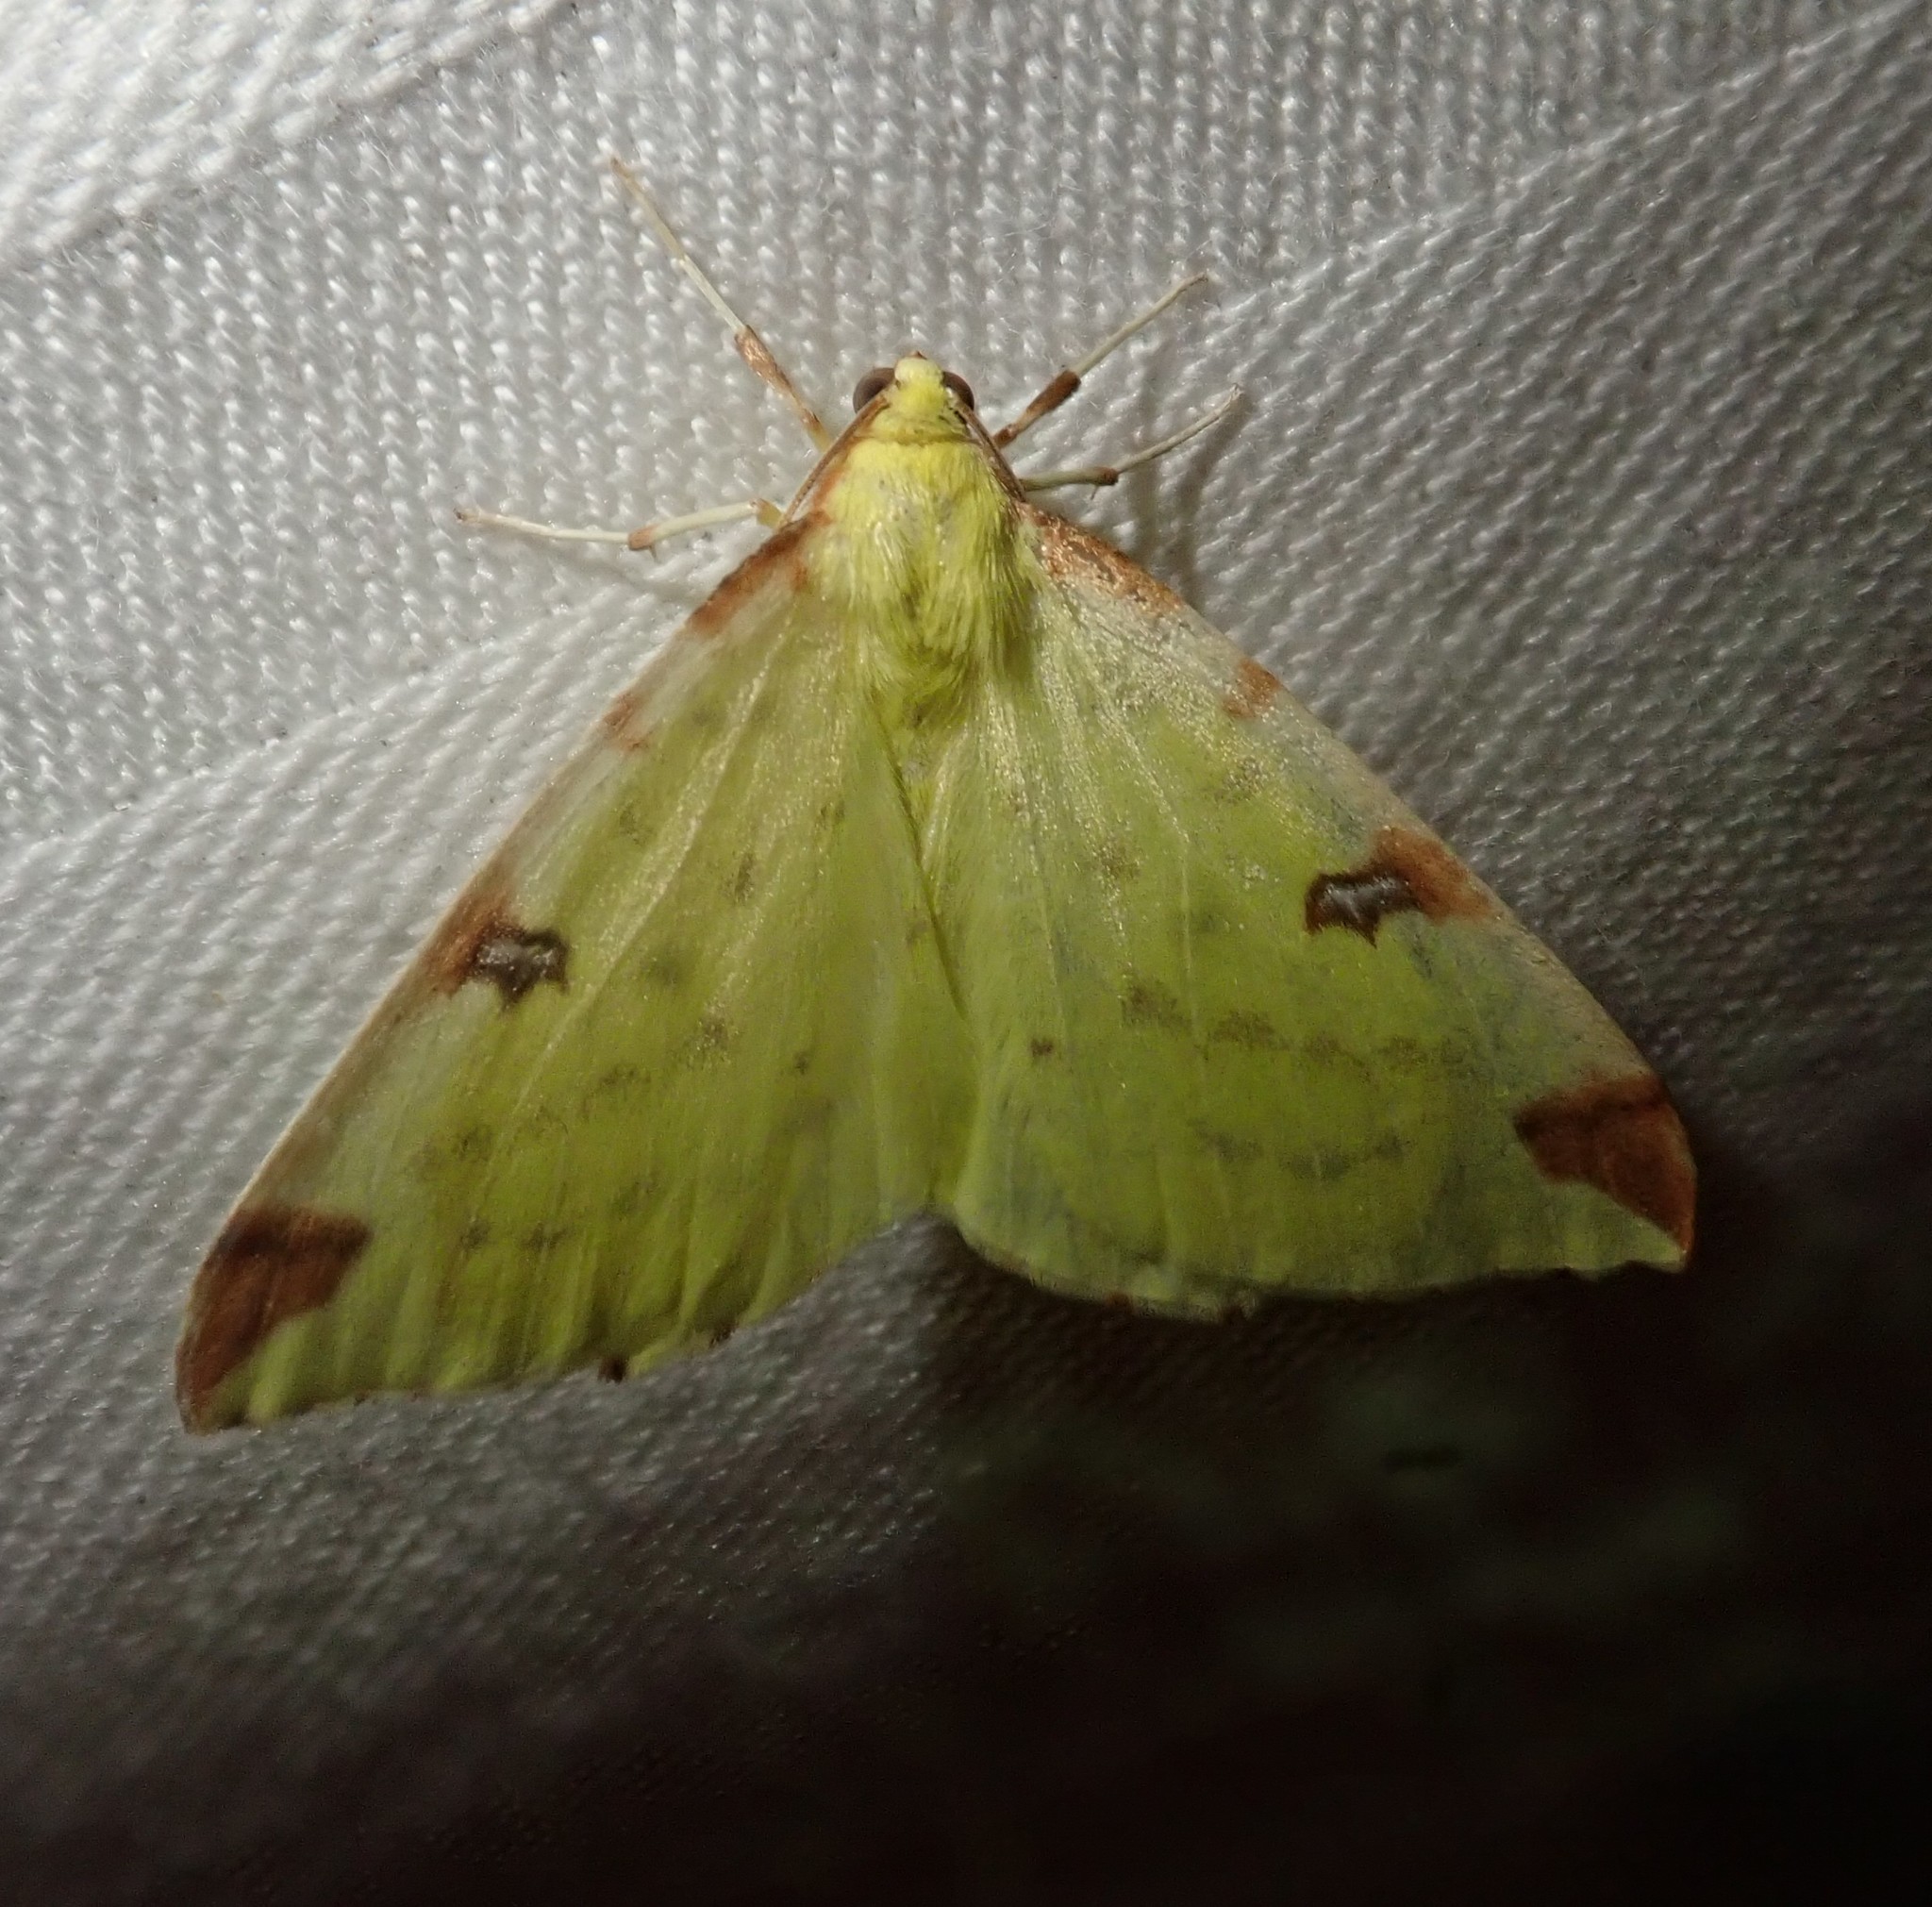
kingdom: Animalia
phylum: Arthropoda
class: Insecta
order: Lepidoptera
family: Geometridae
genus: Opisthograptis
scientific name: Opisthograptis luteolata
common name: Brimstone moth
